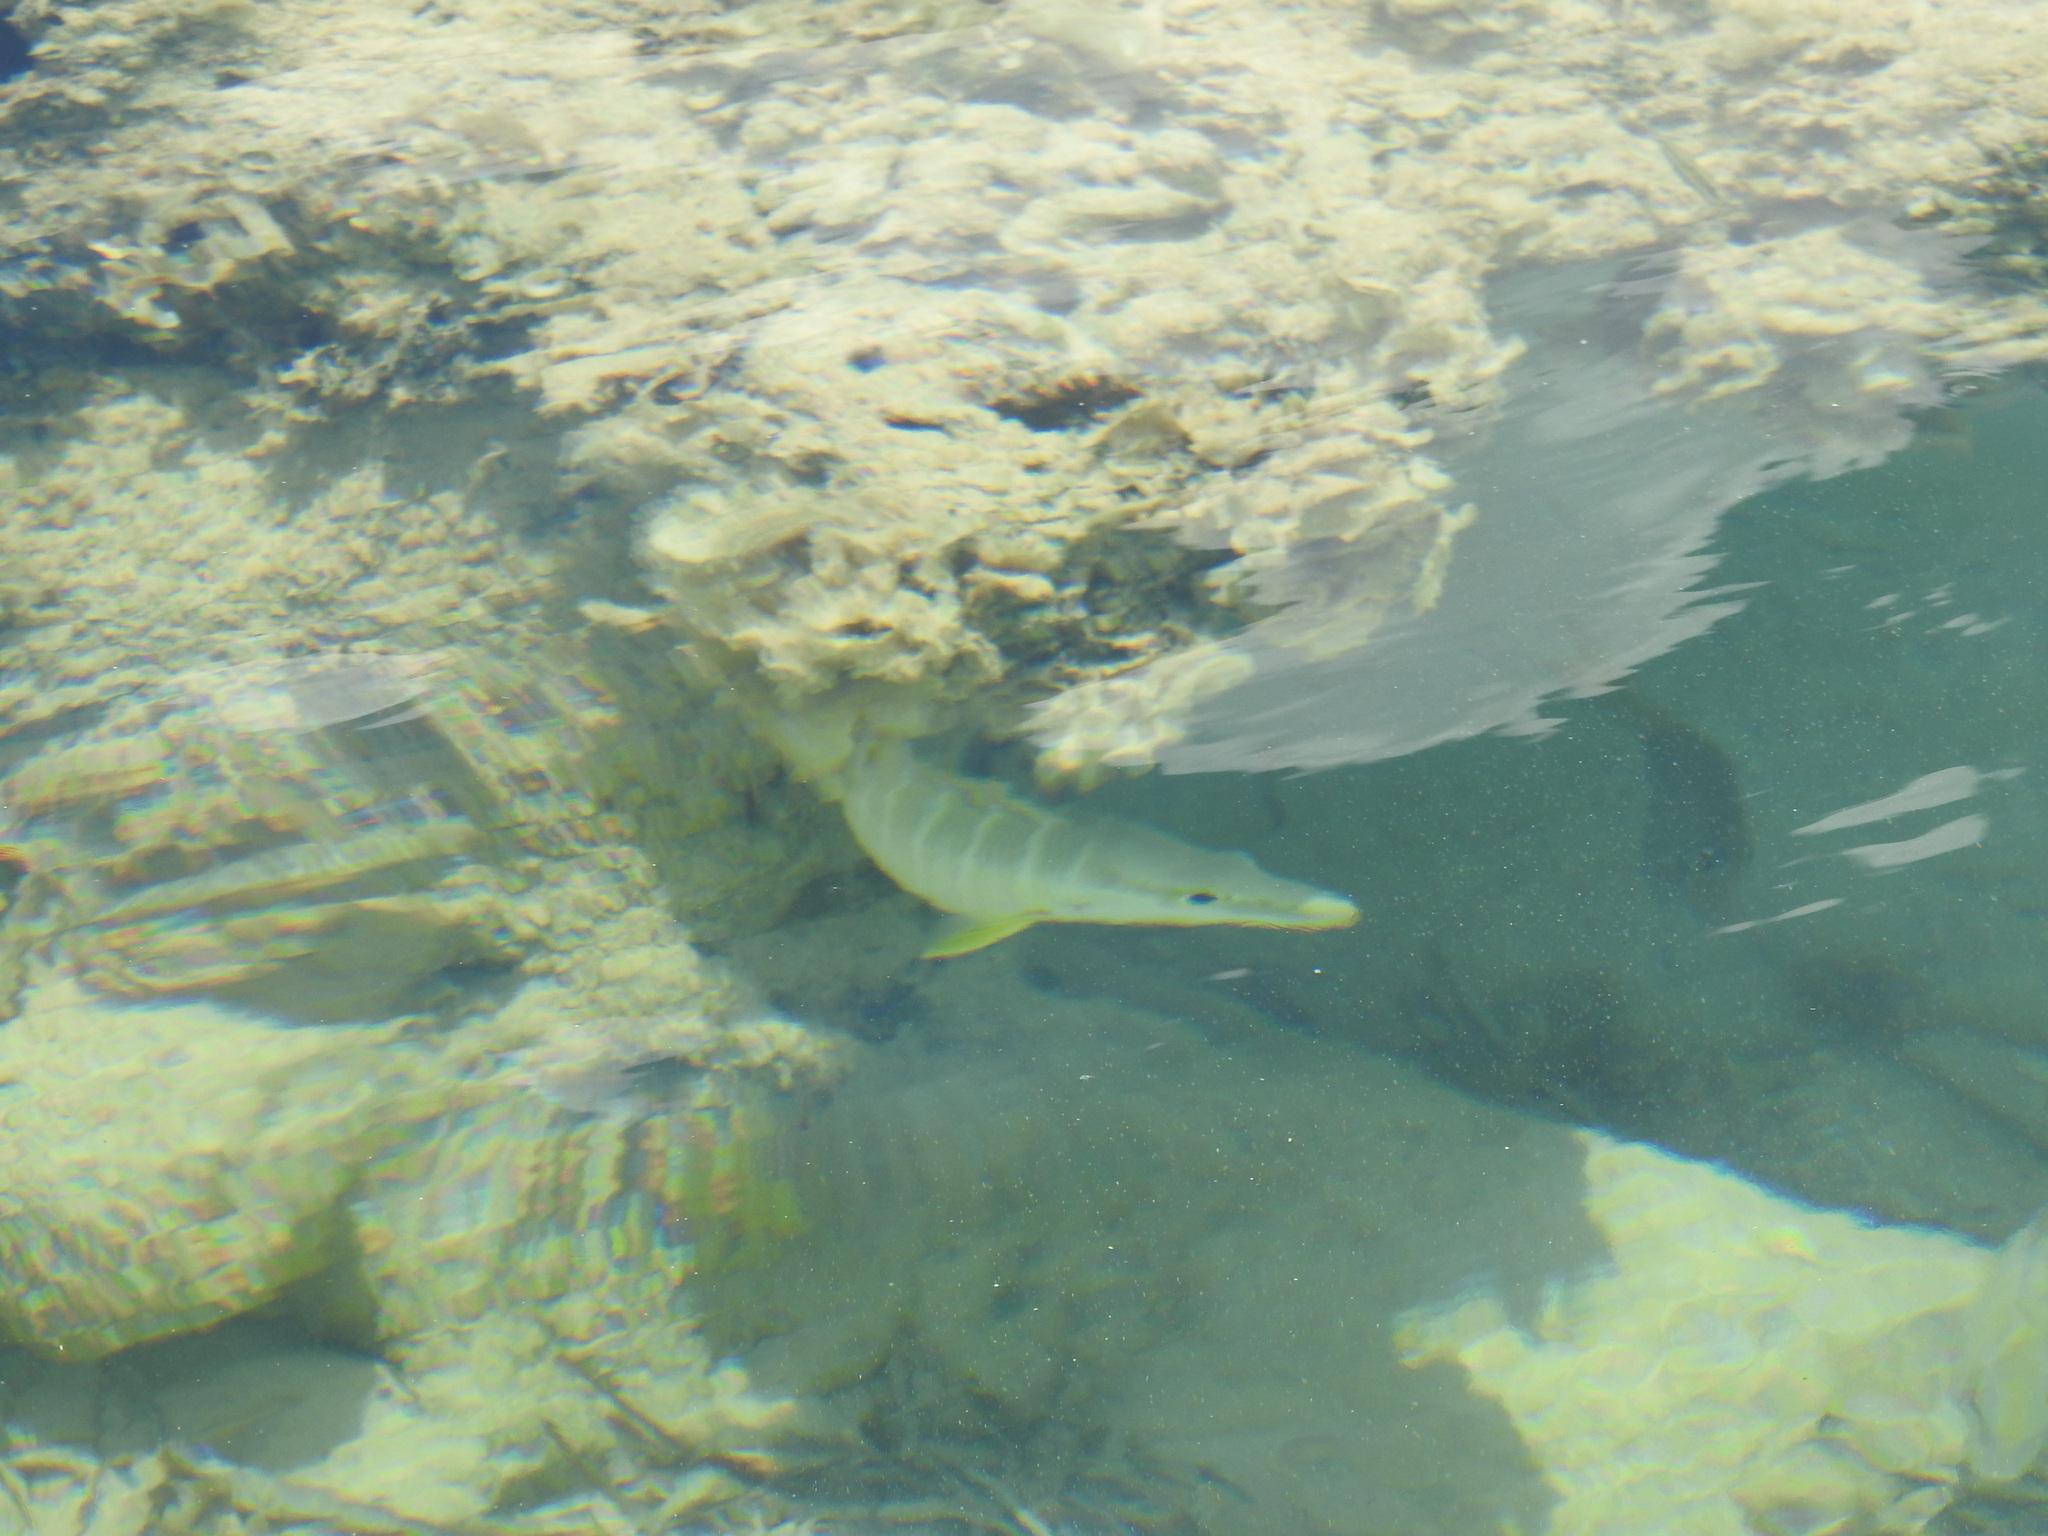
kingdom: Animalia
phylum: Chordata
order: Perciformes
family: Lutjanidae
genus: Lutjanus
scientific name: Lutjanus apodus
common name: Schoolmaster
